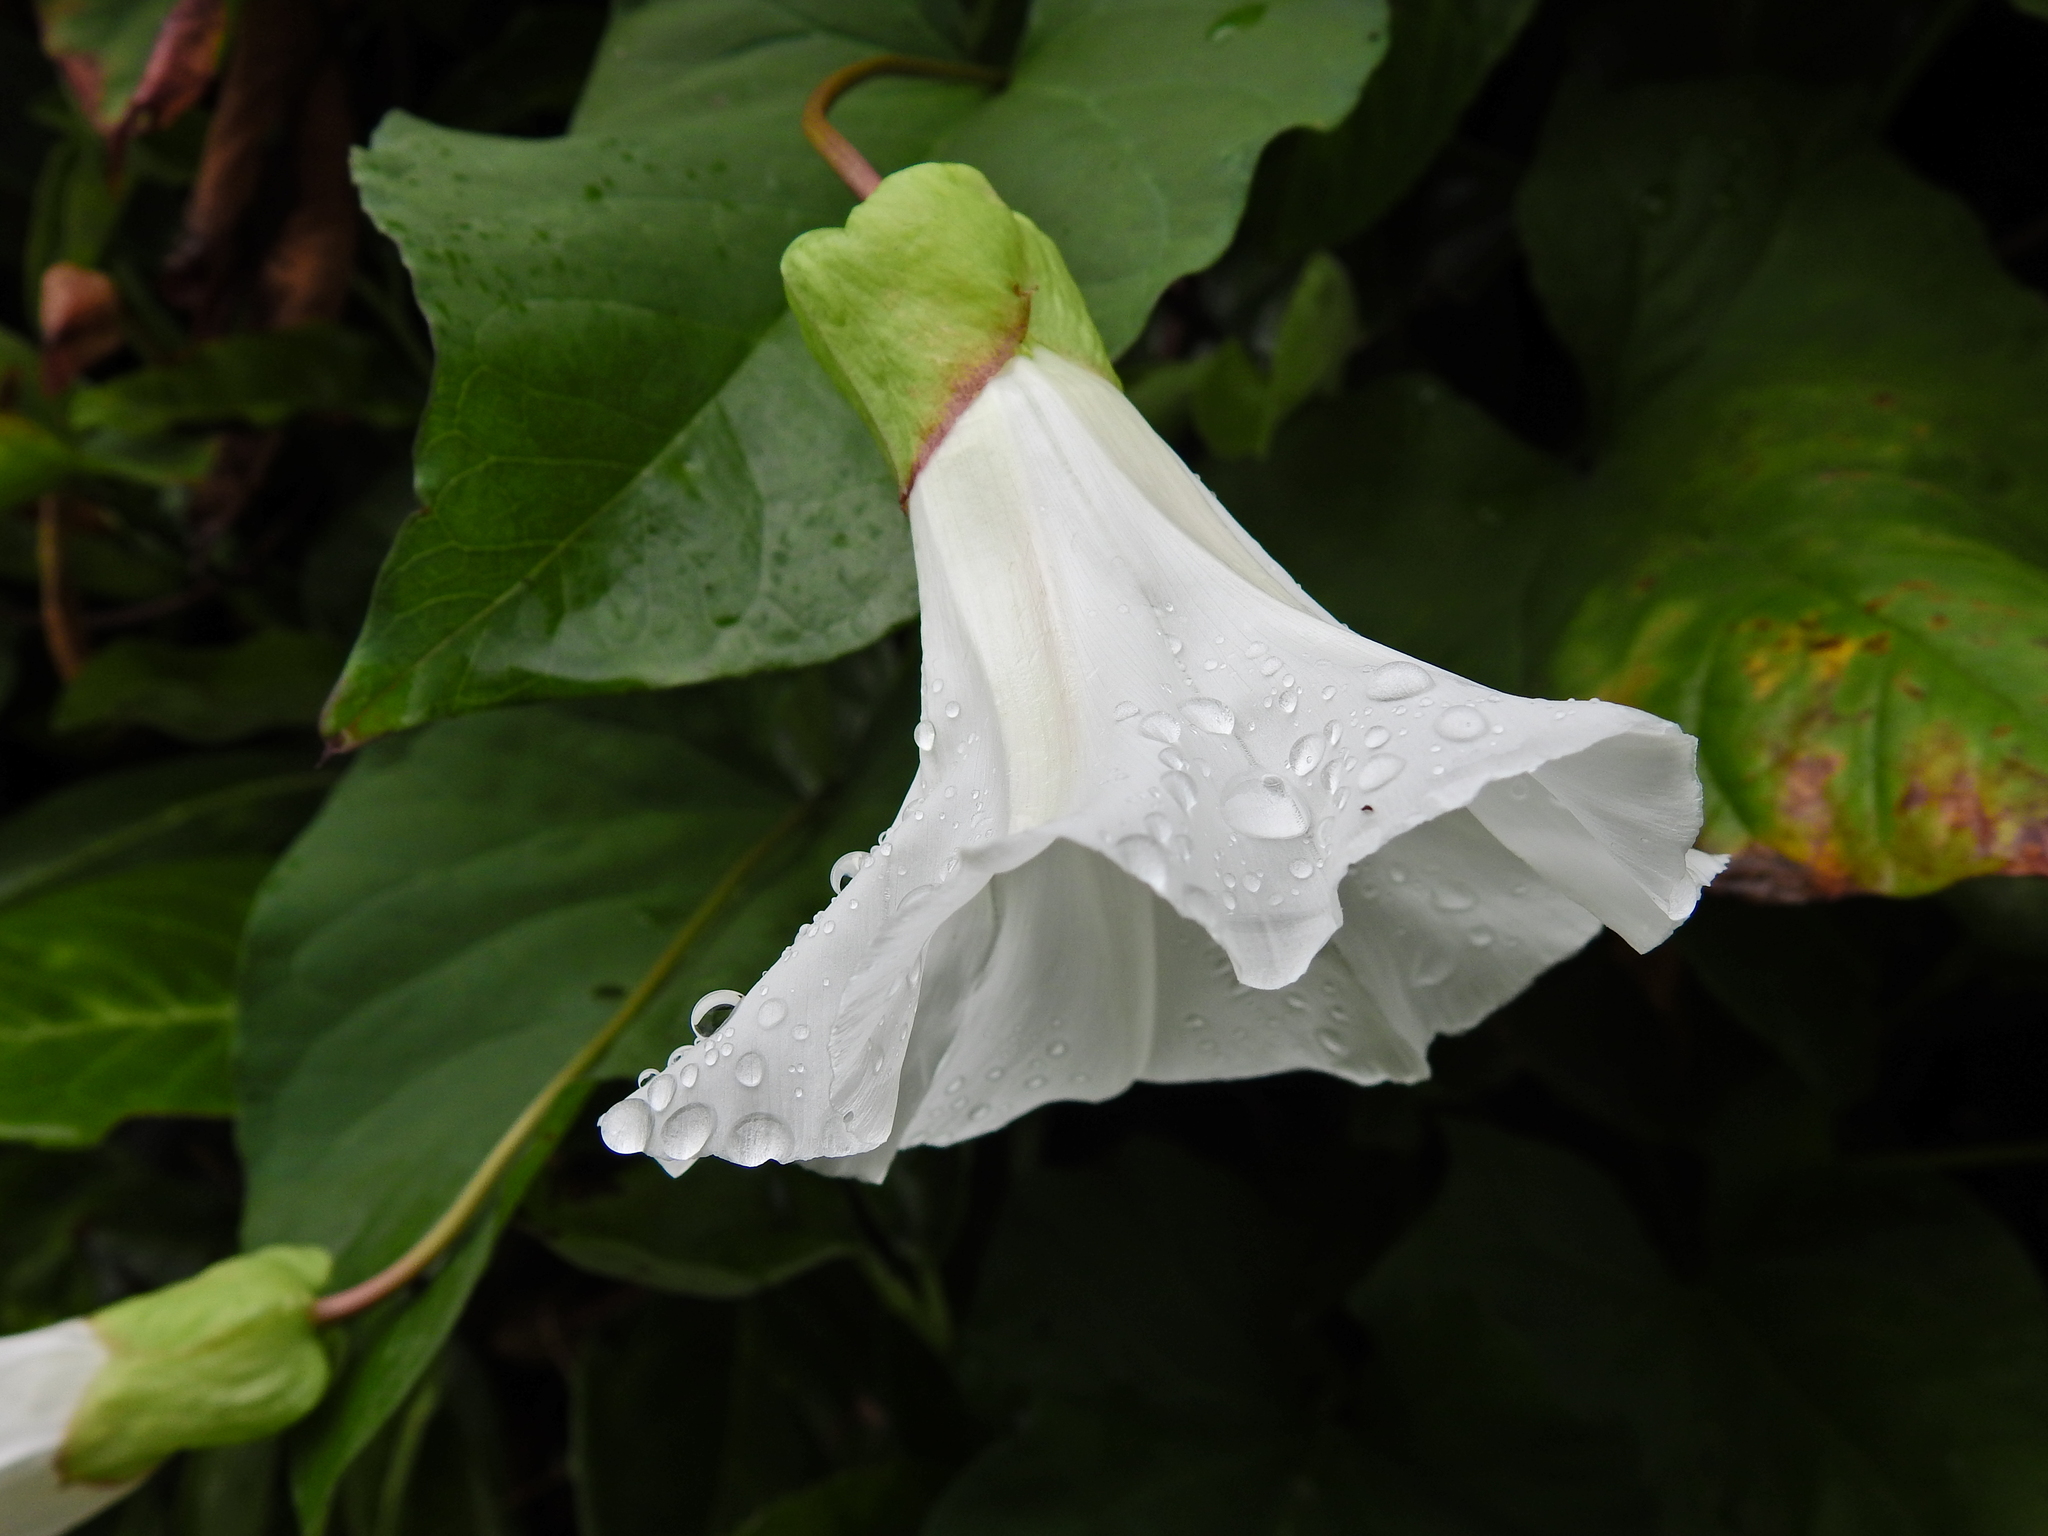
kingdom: Plantae
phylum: Tracheophyta
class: Magnoliopsida
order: Solanales
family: Convolvulaceae
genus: Calystegia
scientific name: Calystegia silvatica
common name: Large bindweed
